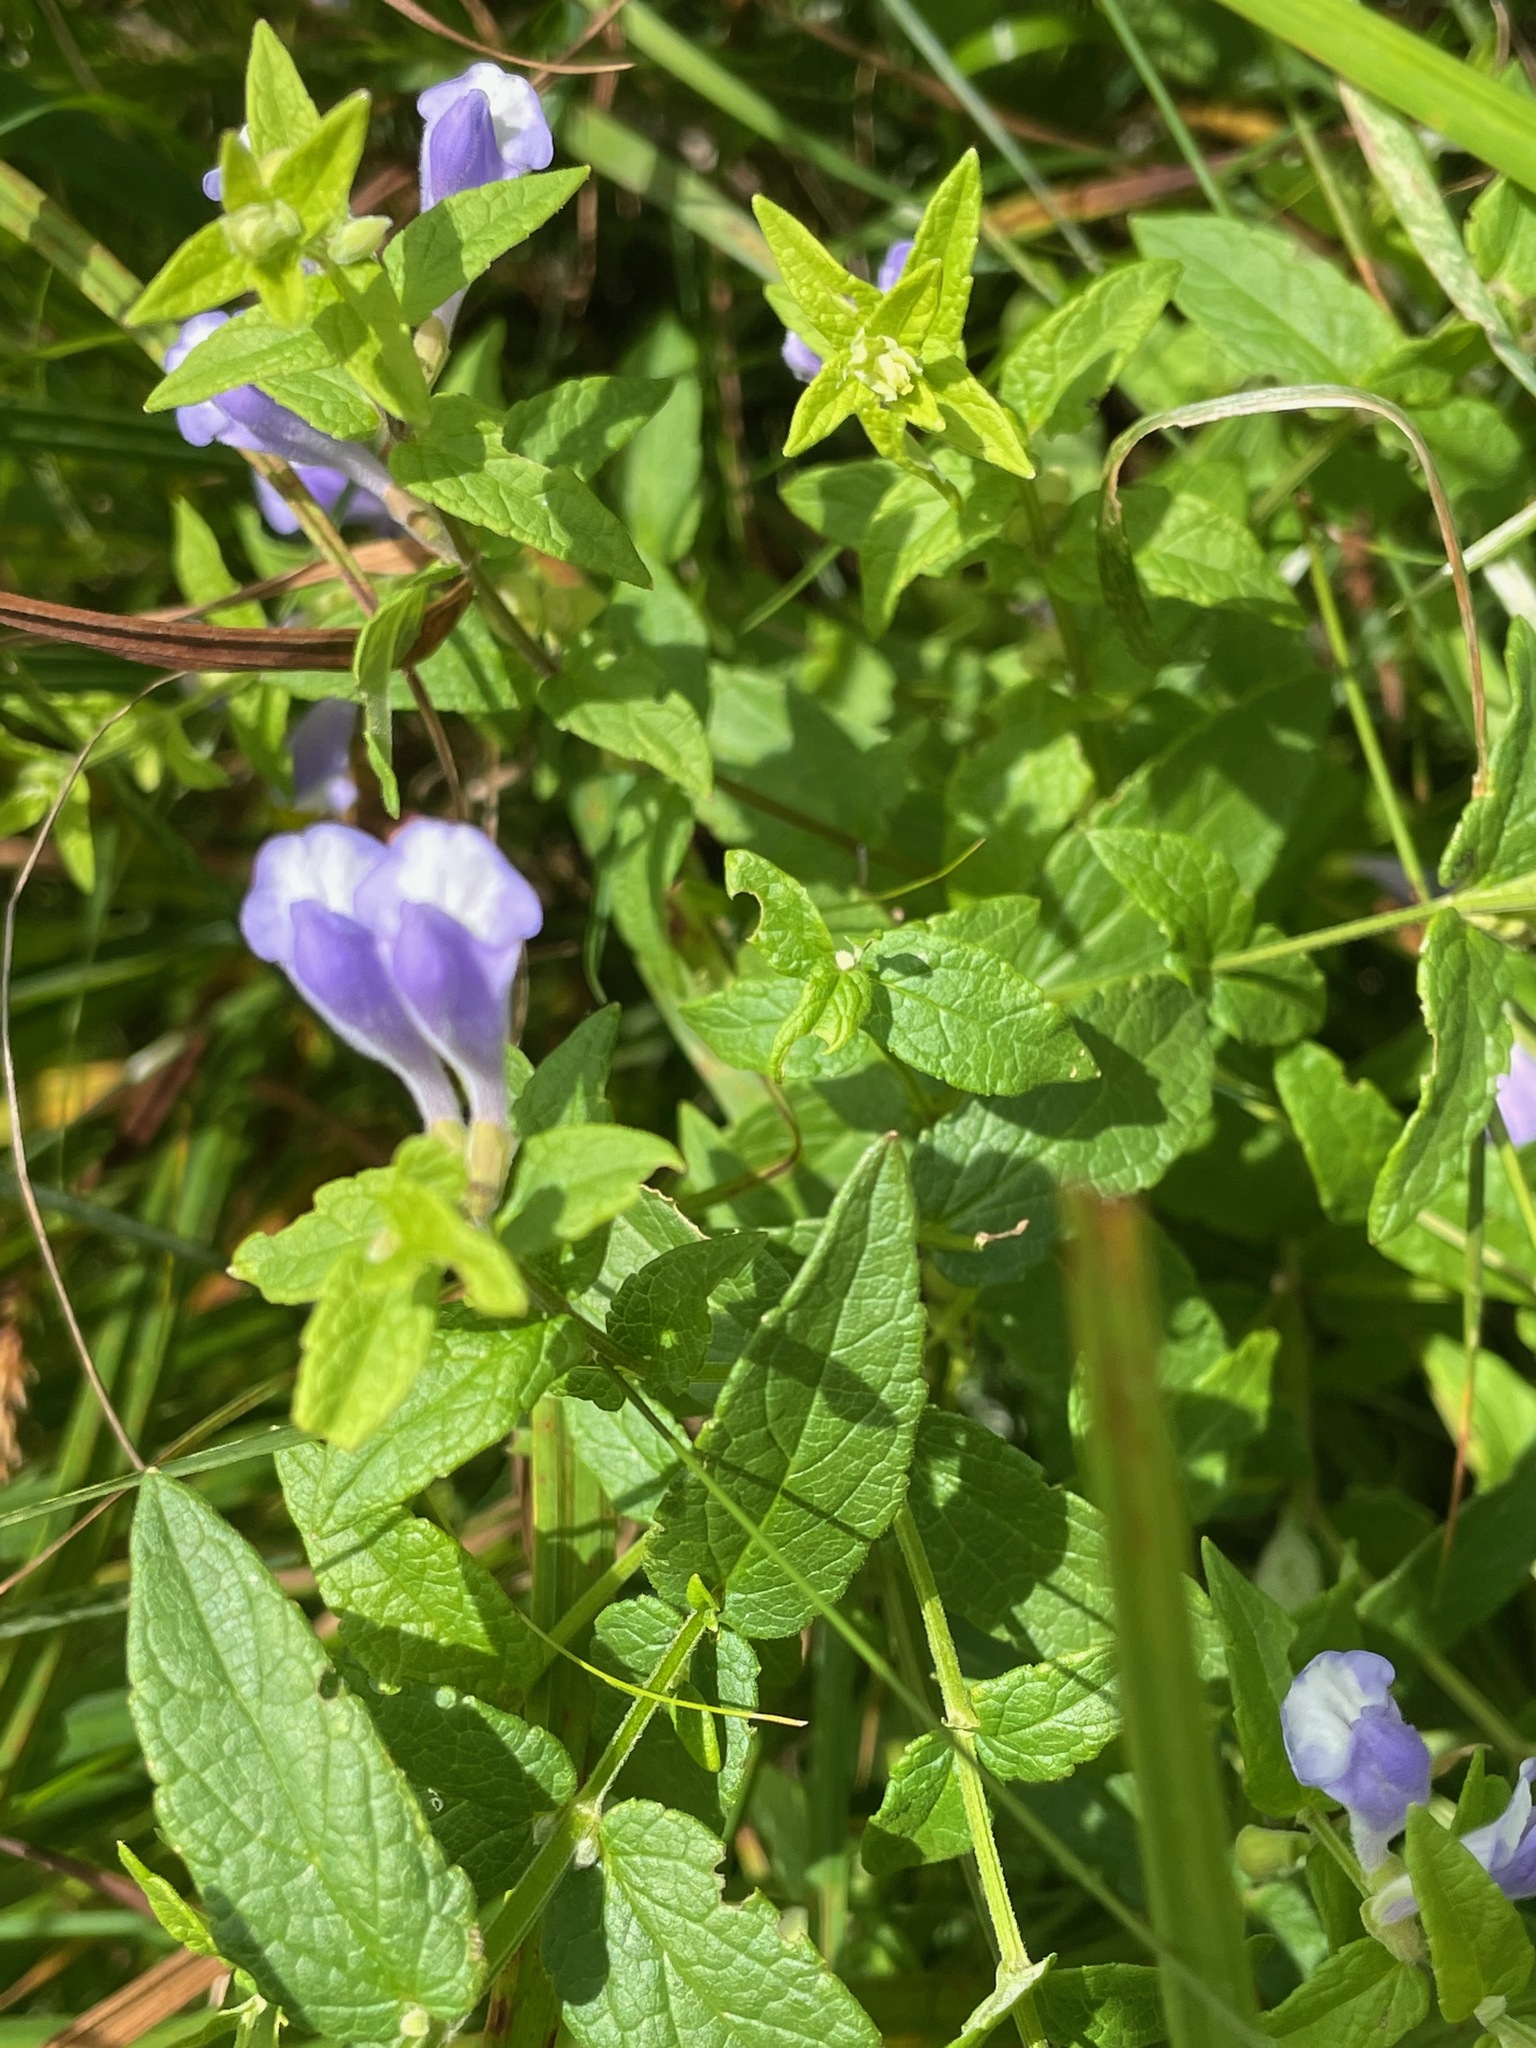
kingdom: Plantae
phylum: Tracheophyta
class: Magnoliopsida
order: Lamiales
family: Lamiaceae
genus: Scutellaria
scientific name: Scutellaria galericulata
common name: Skullcap
